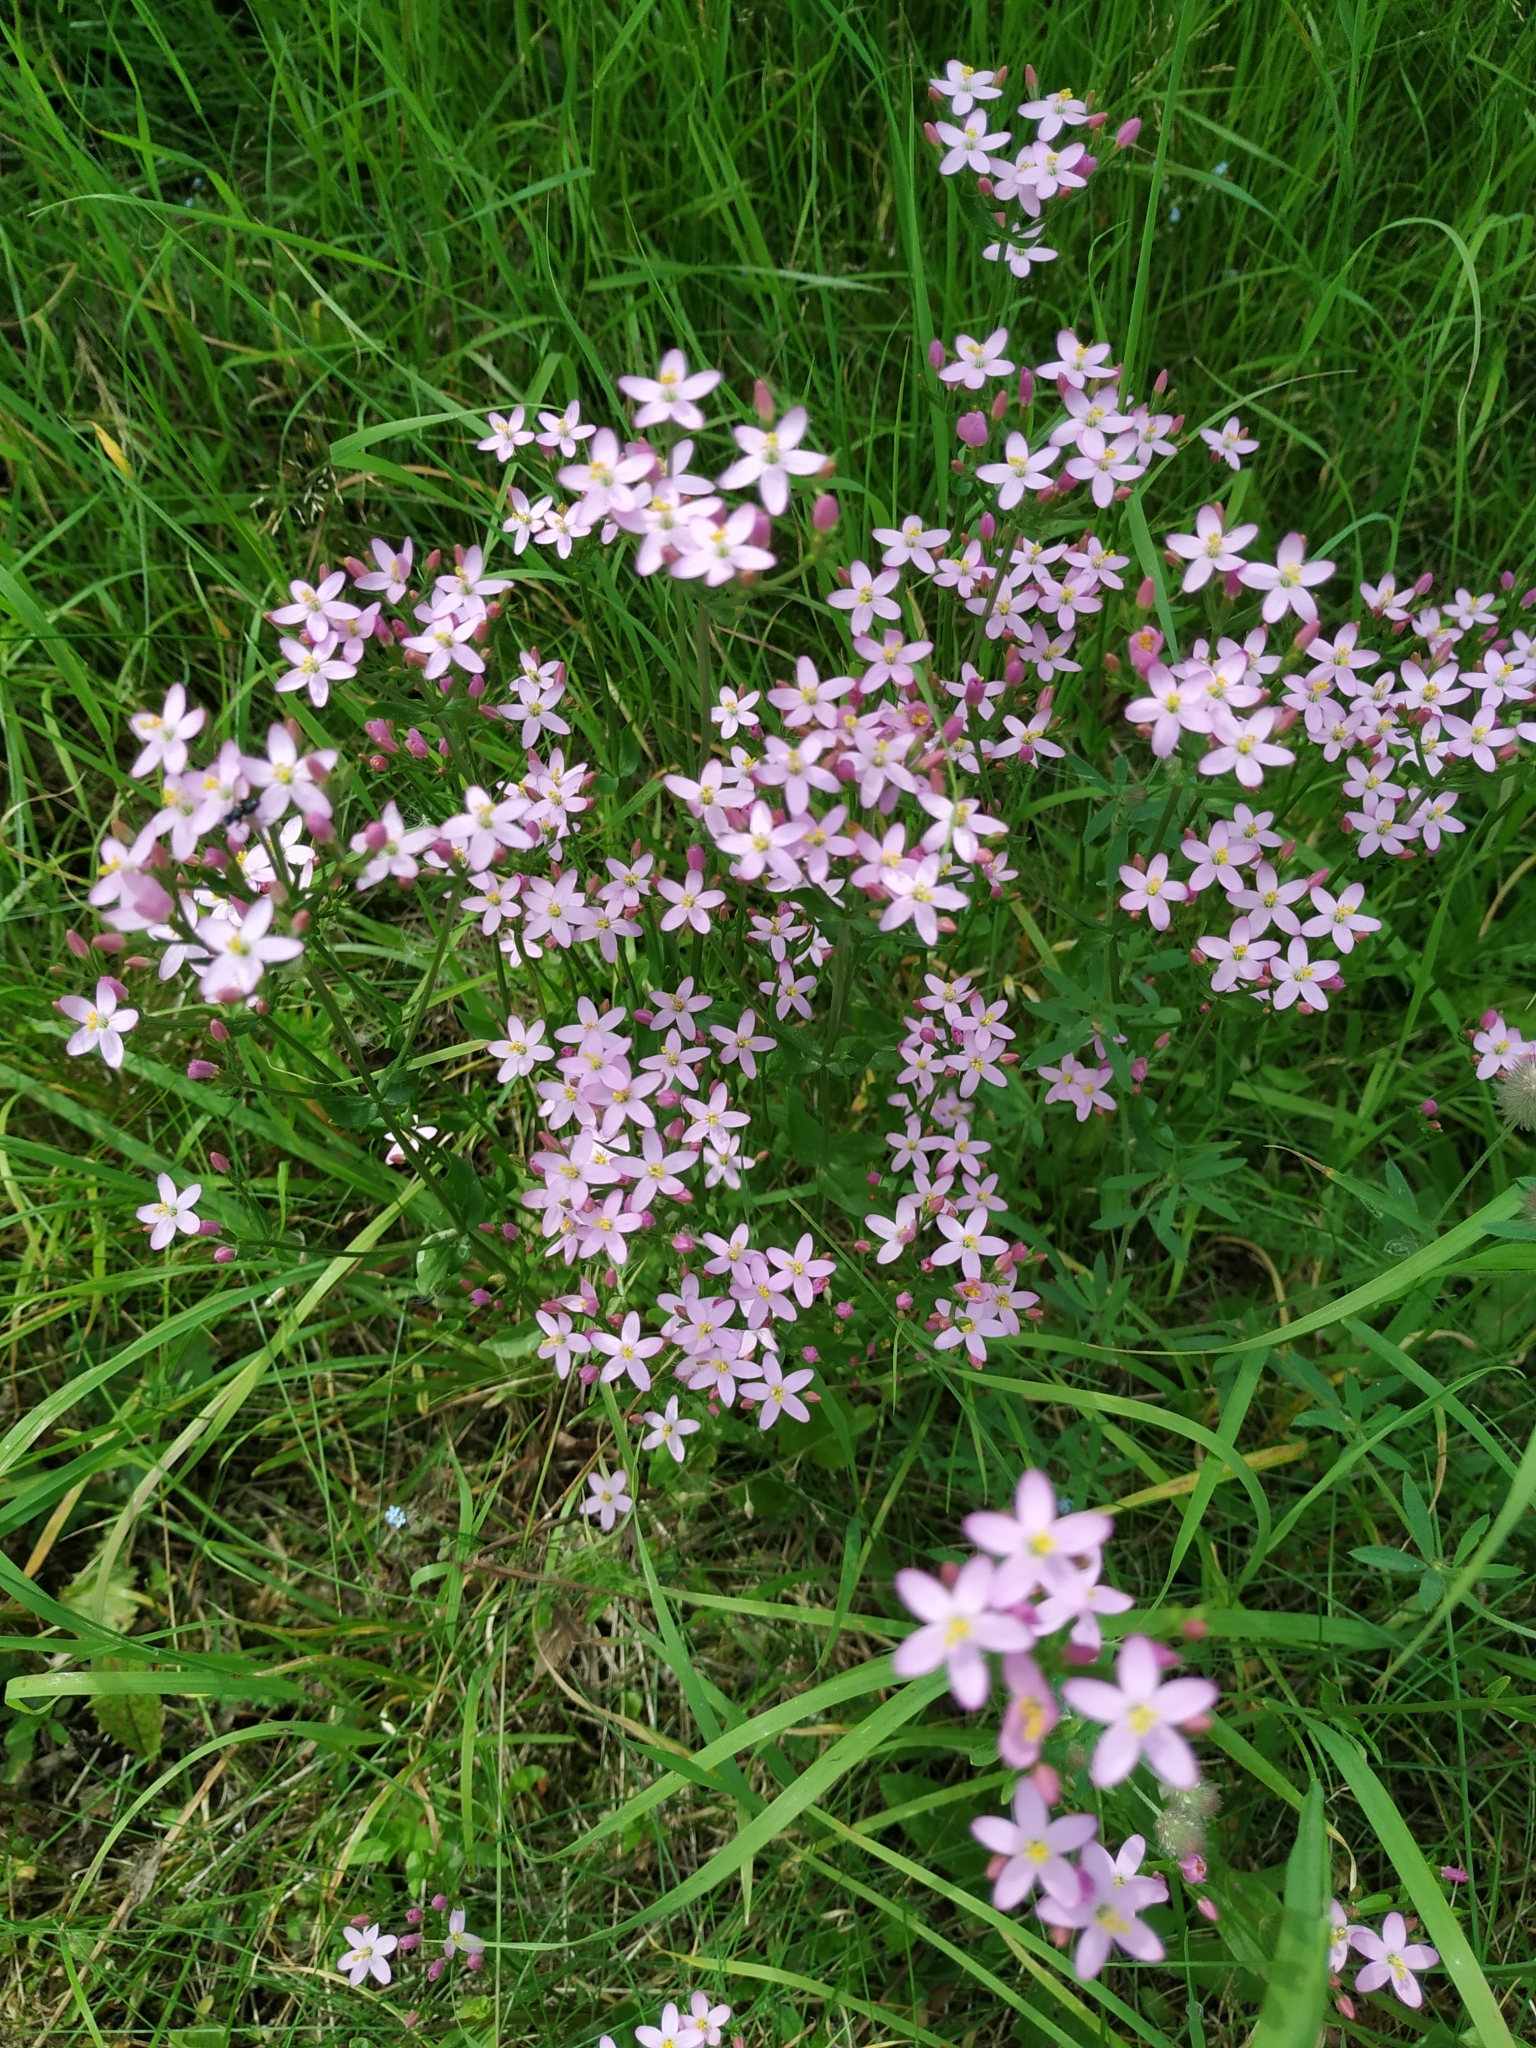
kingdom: Plantae
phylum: Tracheophyta
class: Magnoliopsida
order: Gentianales
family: Gentianaceae
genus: Centaurium
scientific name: Centaurium erythraea
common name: Common centaury
